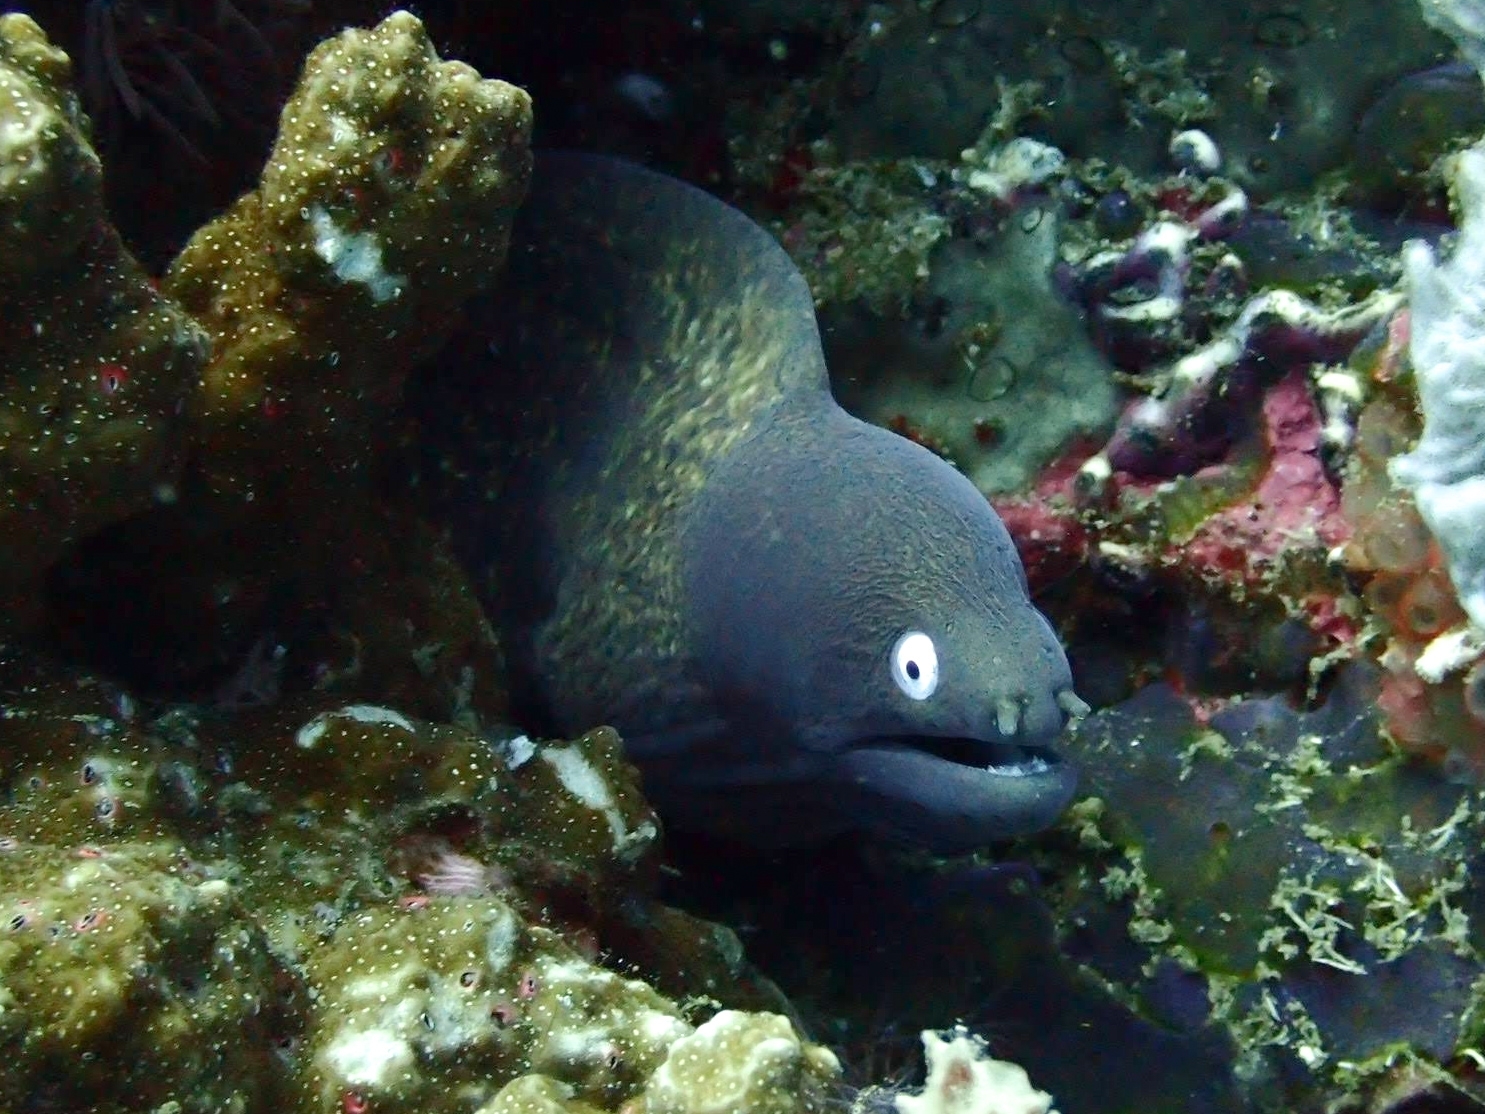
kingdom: Animalia
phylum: Chordata
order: Anguilliformes
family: Muraenidae
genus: Gymnothorax
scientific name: Gymnothorax thyrsoideus
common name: Greyface moray
